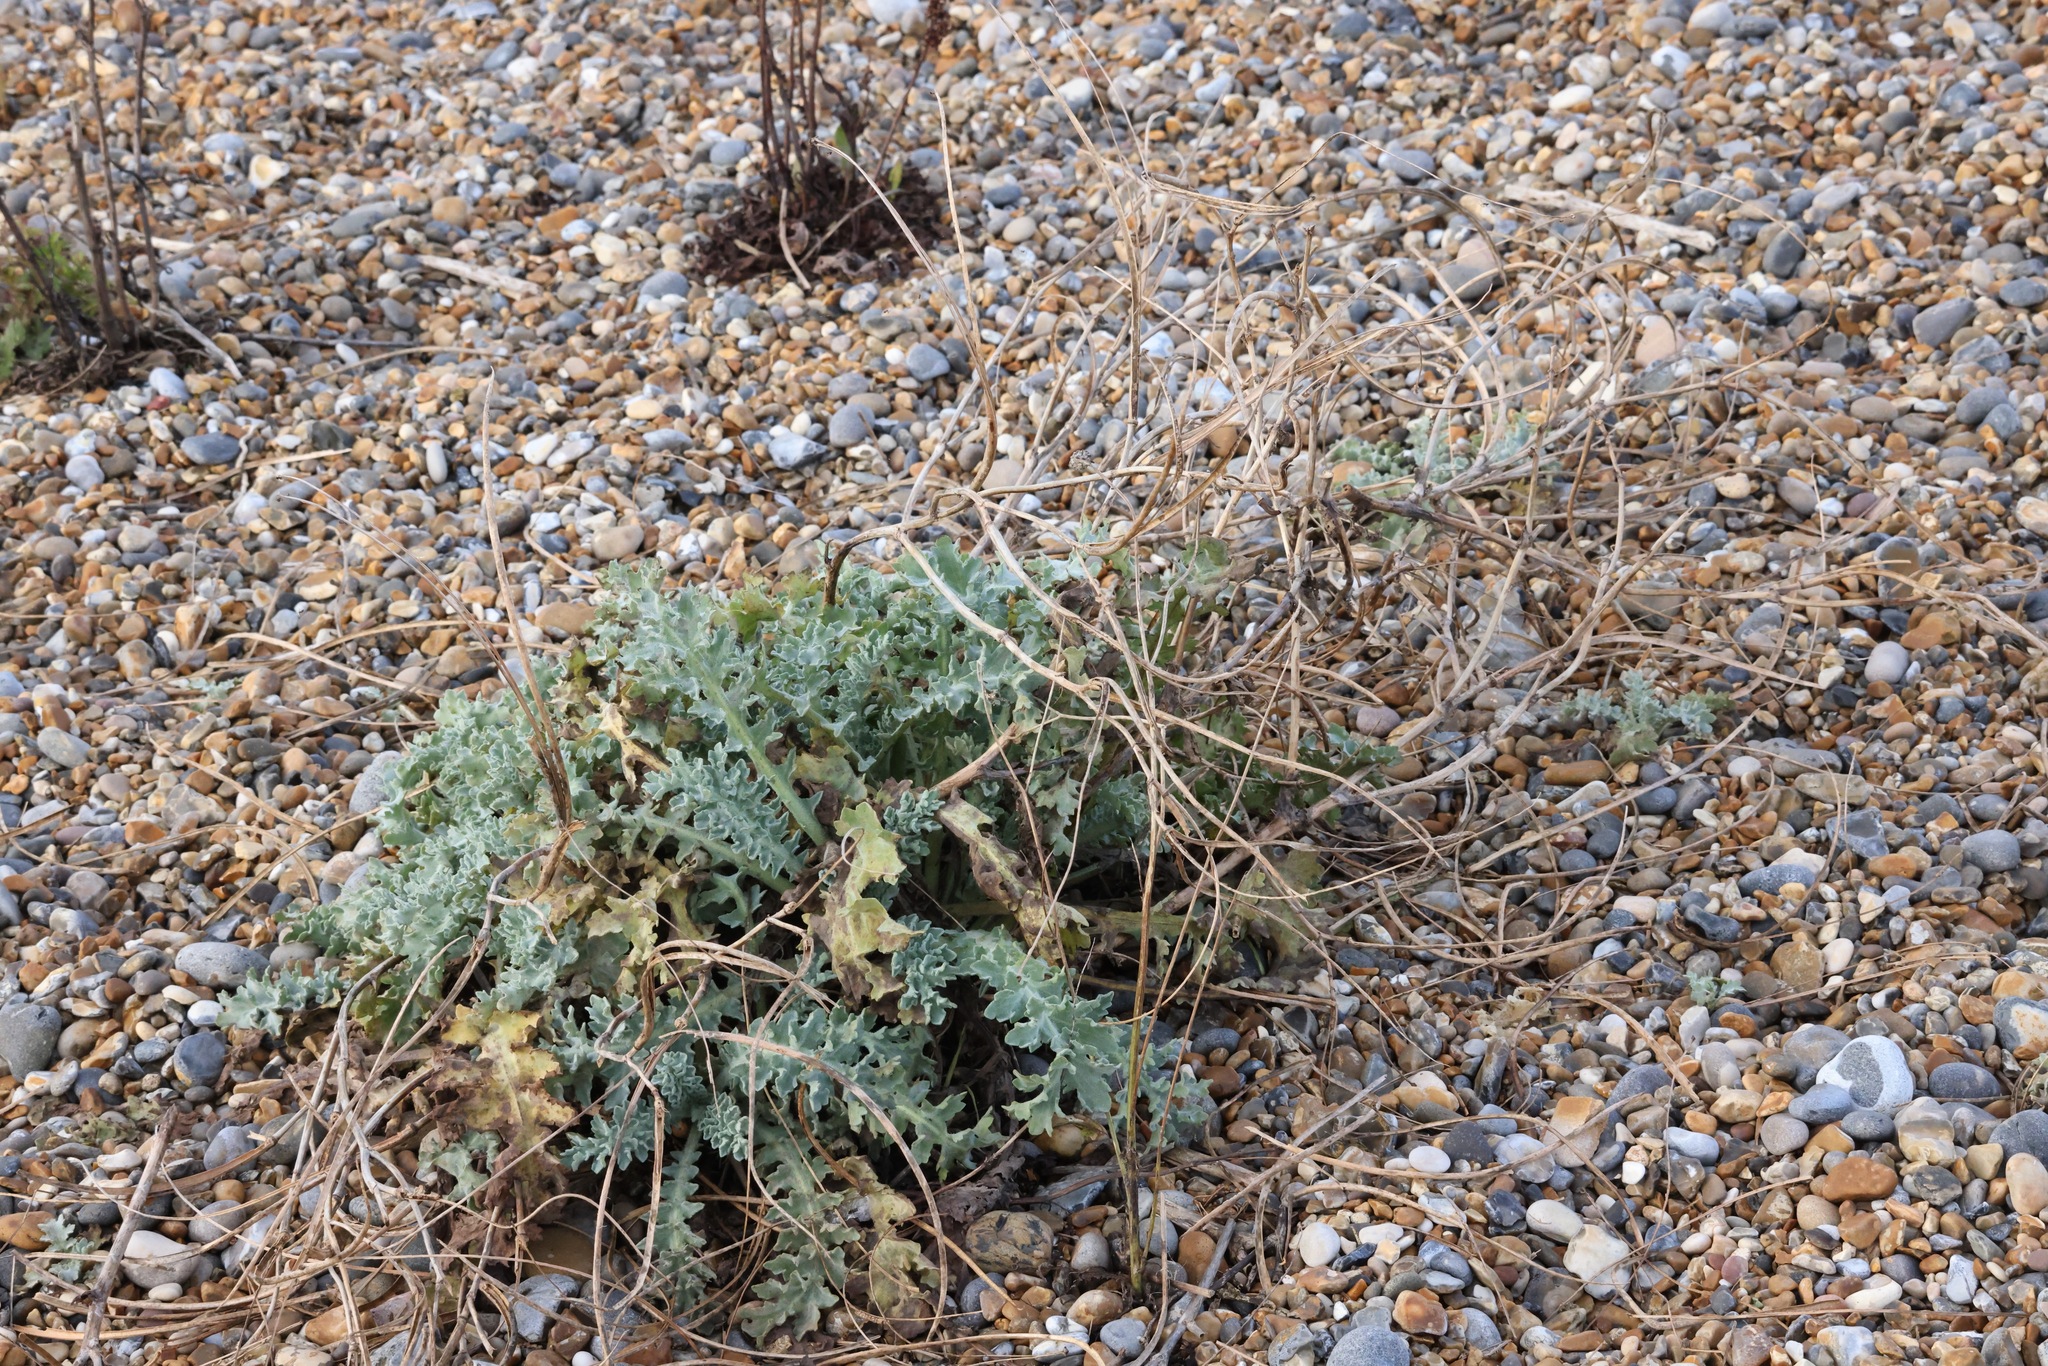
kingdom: Plantae
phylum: Tracheophyta
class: Magnoliopsida
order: Ranunculales
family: Papaveraceae
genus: Glaucium
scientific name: Glaucium flavum
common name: Yellow horned-poppy
